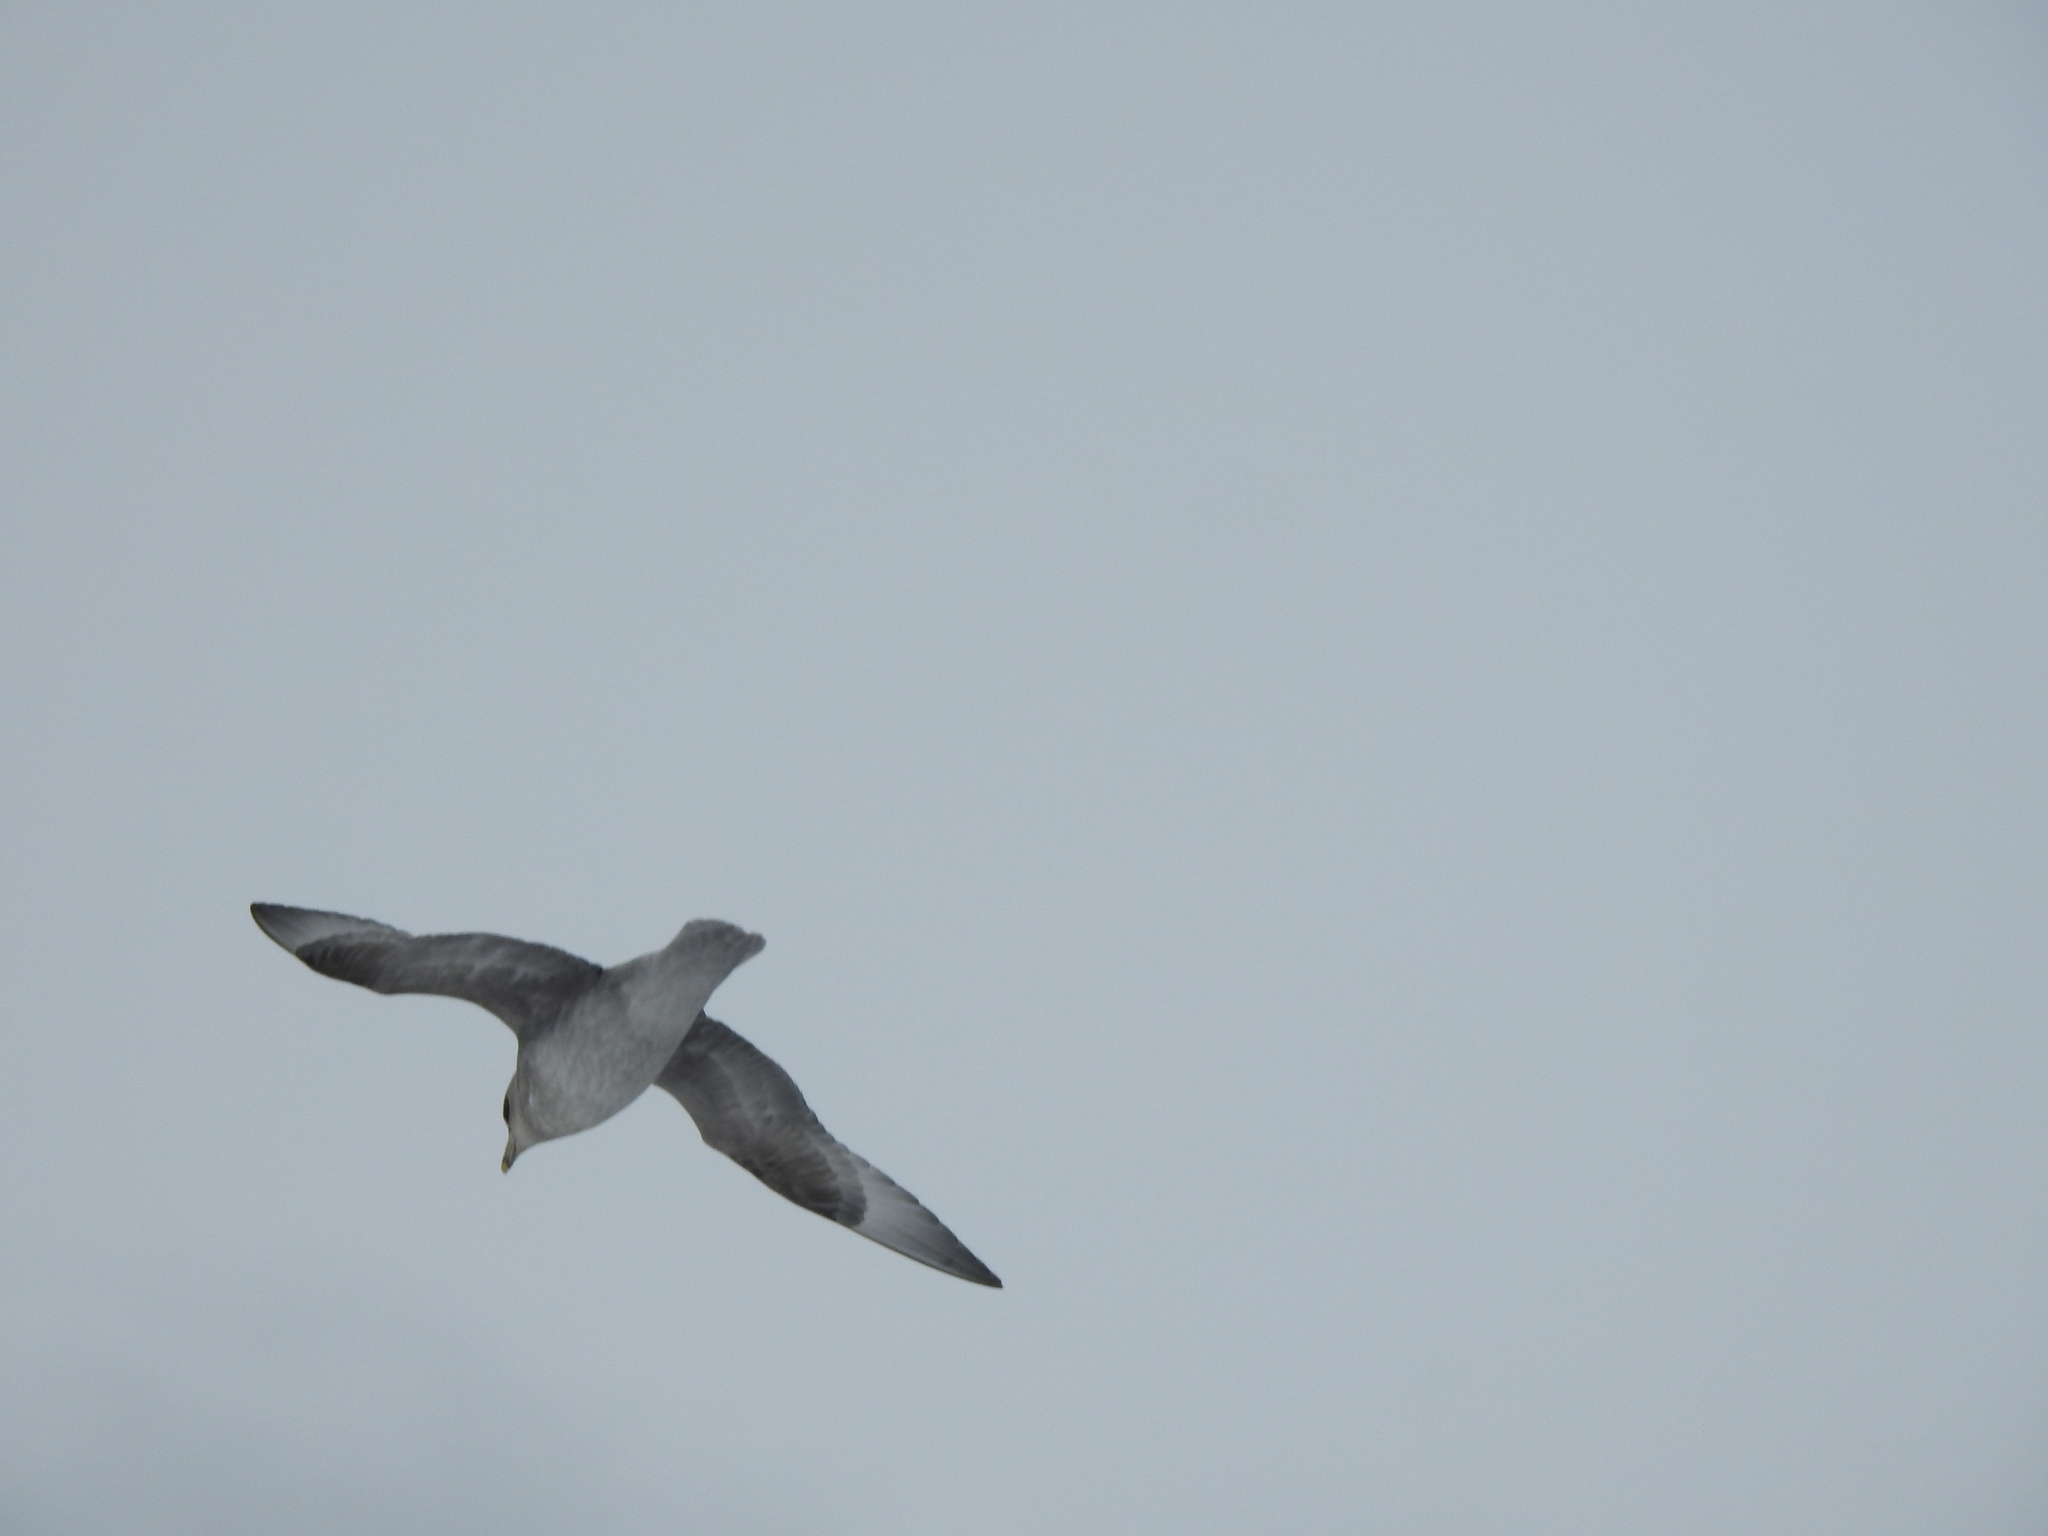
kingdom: Animalia
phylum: Chordata
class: Aves
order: Procellariiformes
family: Procellariidae
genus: Fulmarus
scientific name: Fulmarus glacialis
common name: Northern fulmar
